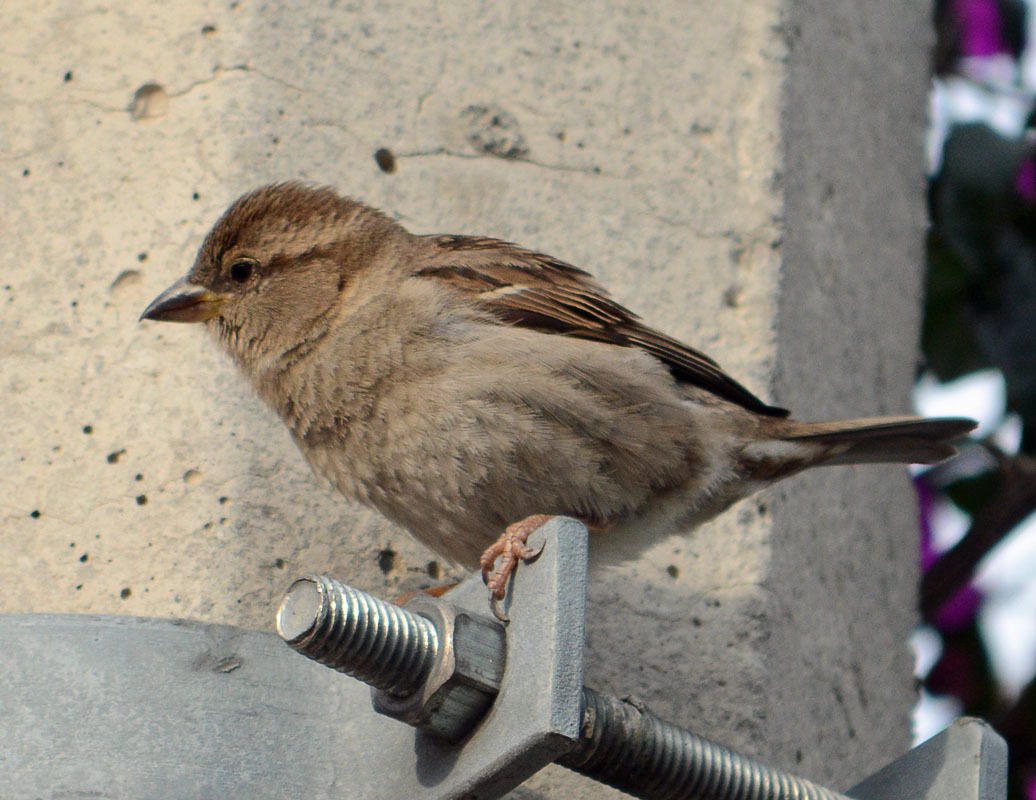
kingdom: Animalia
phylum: Chordata
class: Aves
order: Passeriformes
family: Passeridae
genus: Passer
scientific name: Passer domesticus
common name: House sparrow
